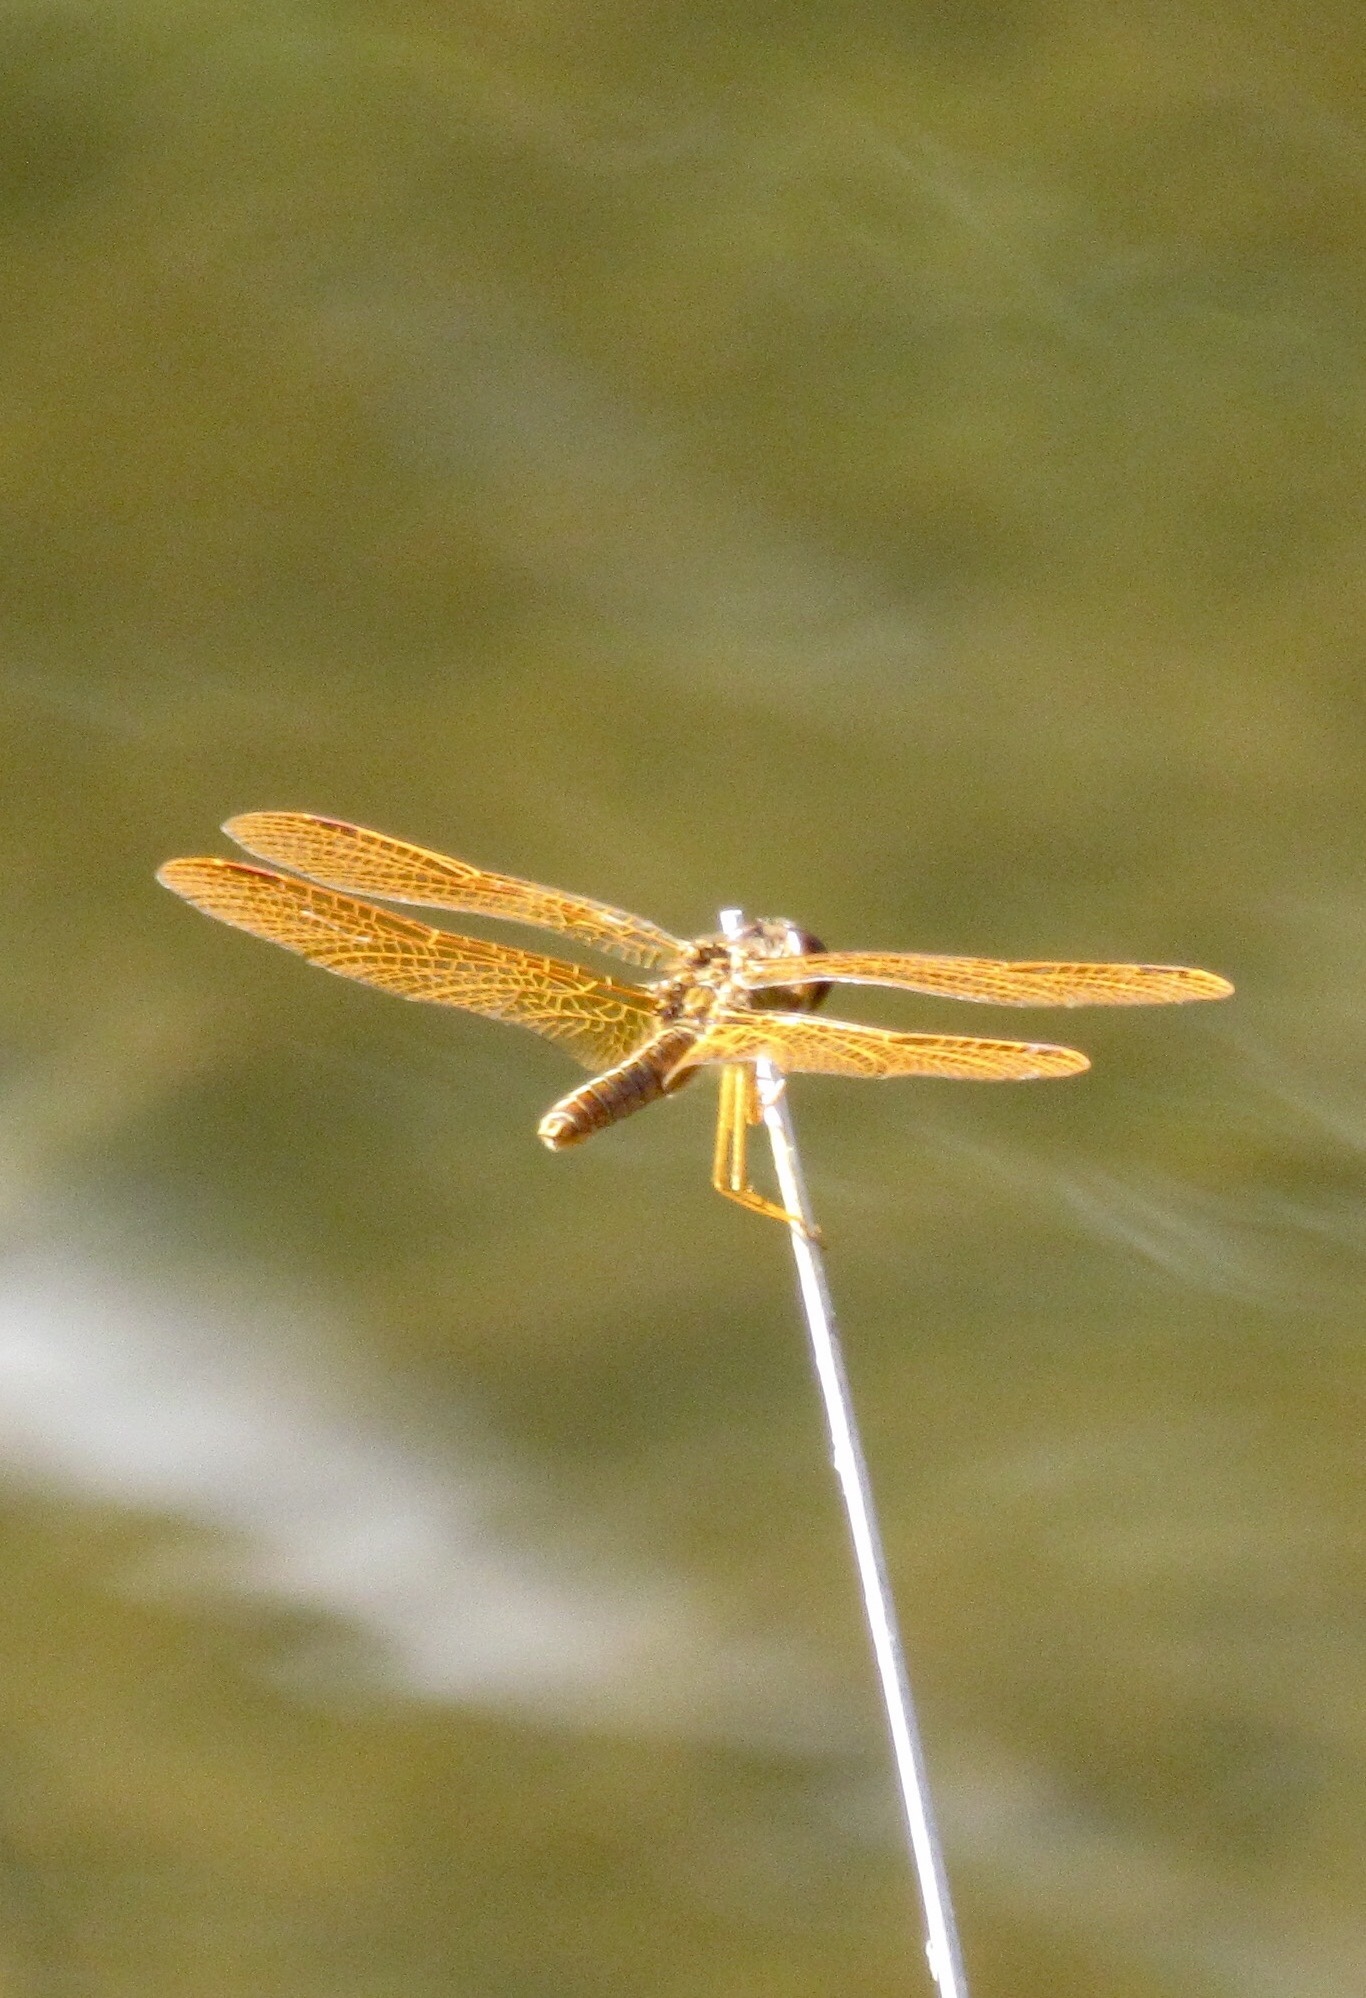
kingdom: Animalia
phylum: Arthropoda
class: Insecta
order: Odonata
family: Libellulidae
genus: Perithemis
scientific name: Perithemis intensa
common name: Mexican amberwing
